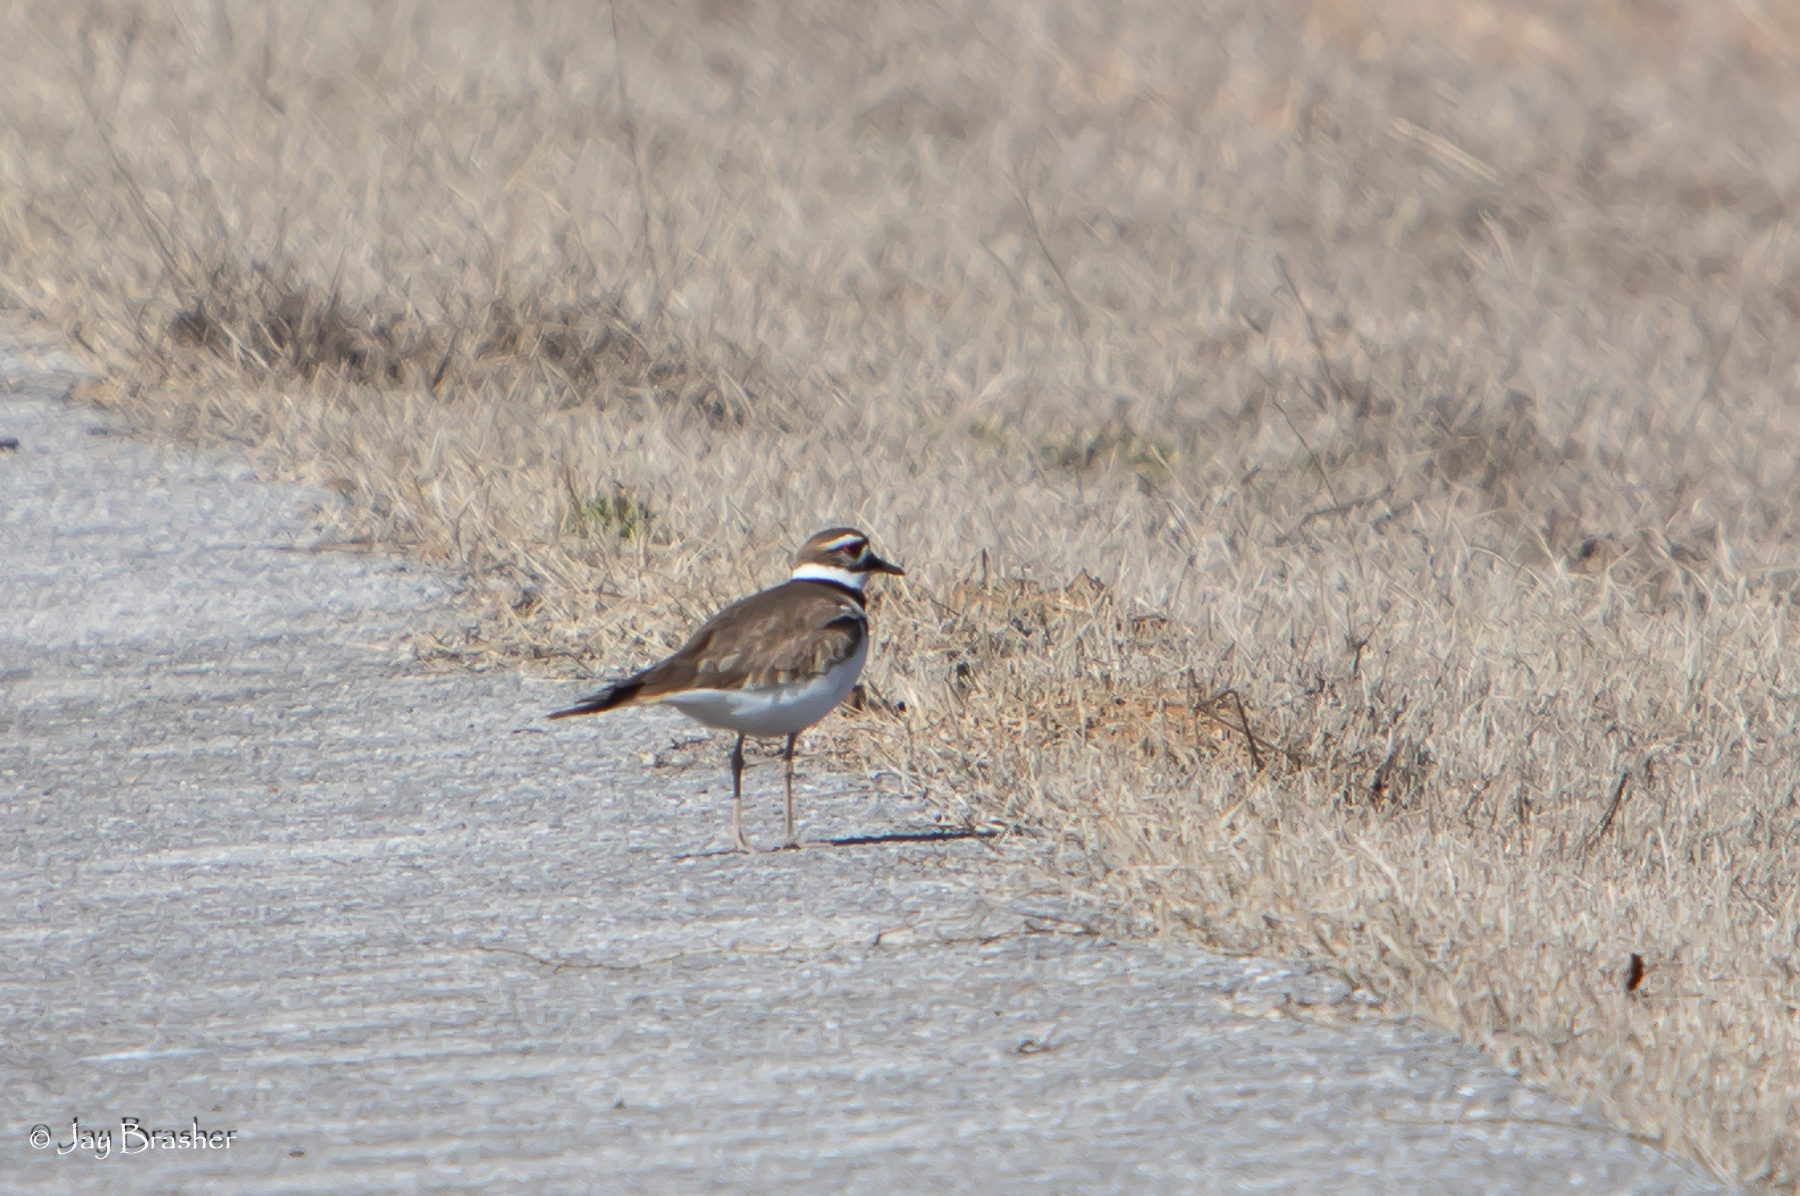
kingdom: Animalia
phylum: Chordata
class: Aves
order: Charadriiformes
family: Charadriidae
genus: Charadrius
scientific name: Charadrius vociferus
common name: Killdeer
